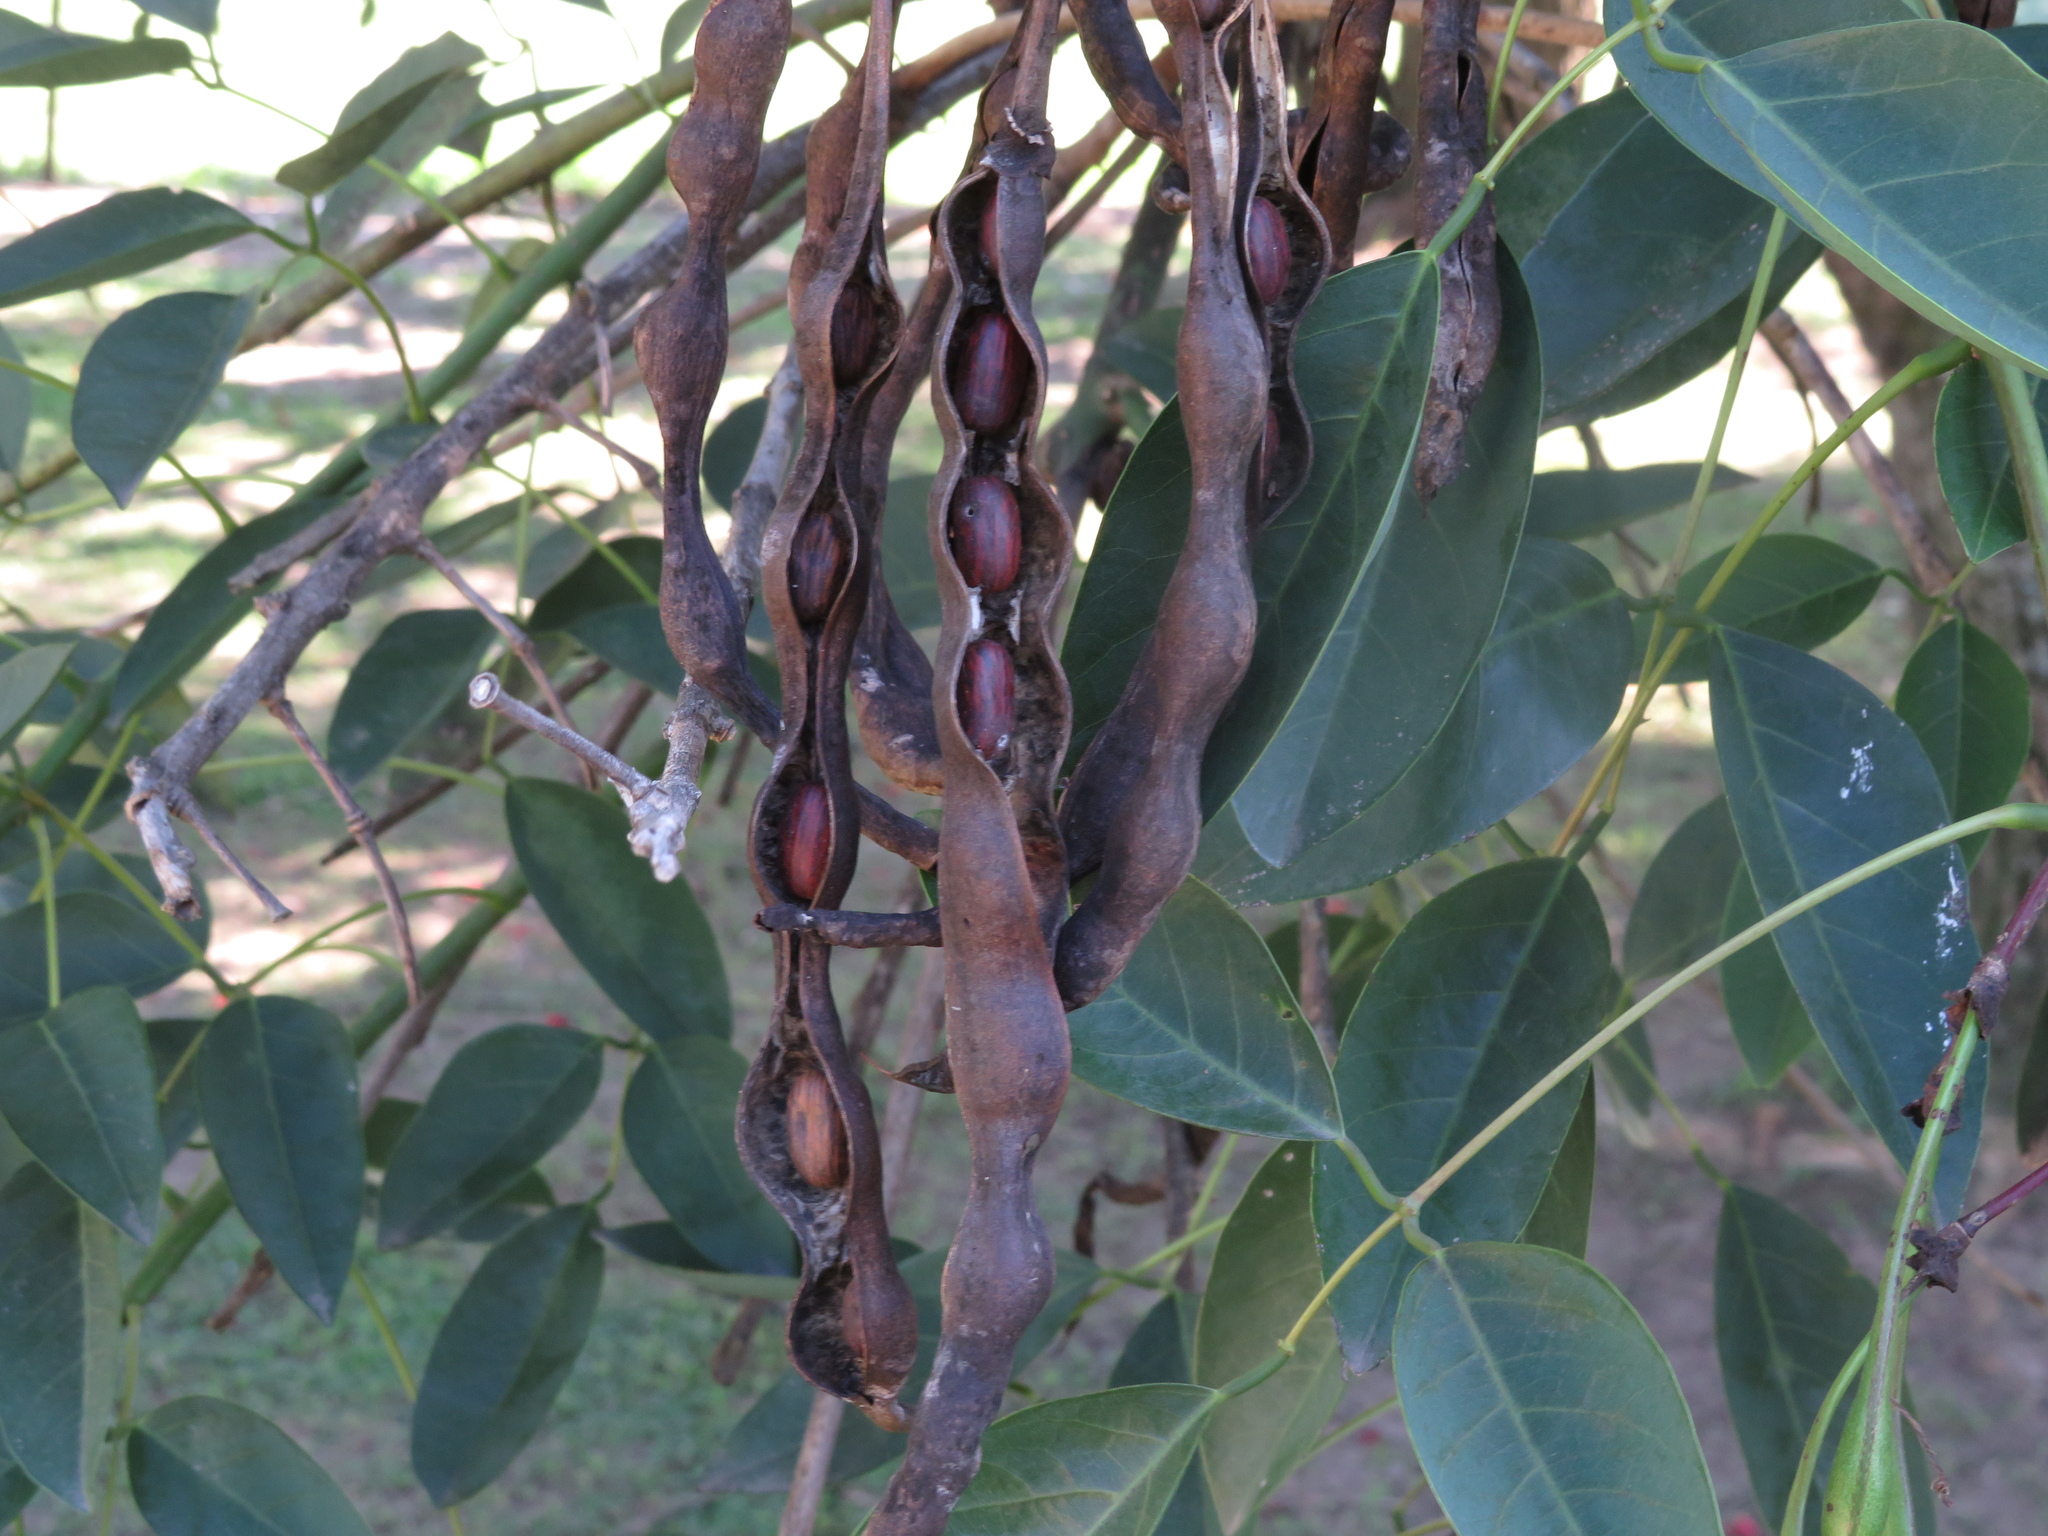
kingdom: Plantae
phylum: Tracheophyta
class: Magnoliopsida
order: Fabales
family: Fabaceae
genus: Erythrina
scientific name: Erythrina crista-galli
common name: Cockspur coral tree
